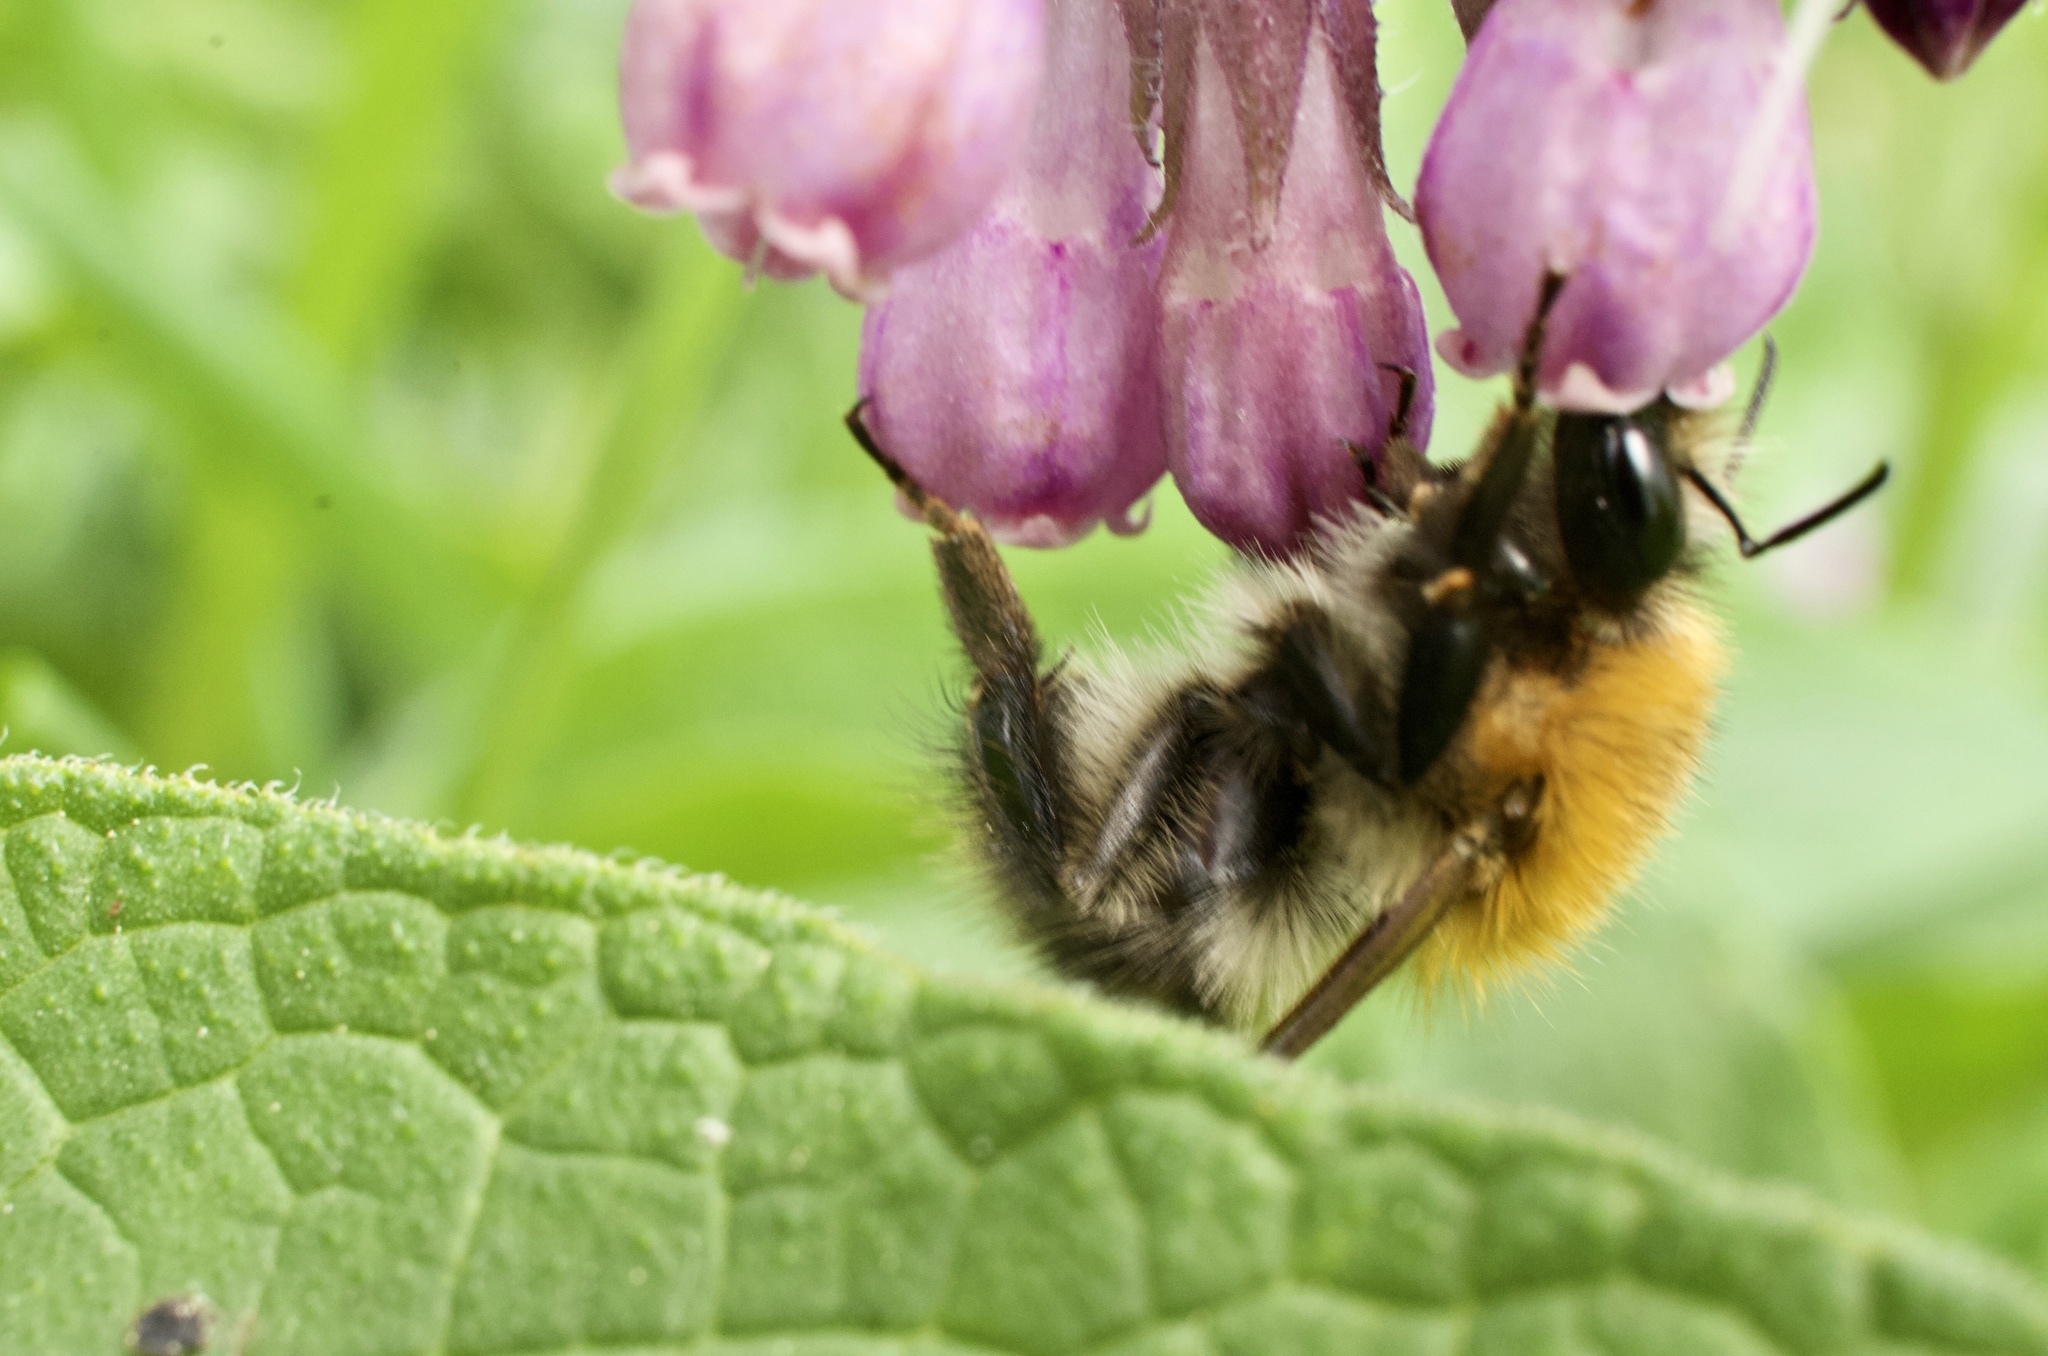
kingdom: Animalia
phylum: Arthropoda
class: Insecta
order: Hymenoptera
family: Apidae
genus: Bombus
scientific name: Bombus pascuorum
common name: Common carder bee
